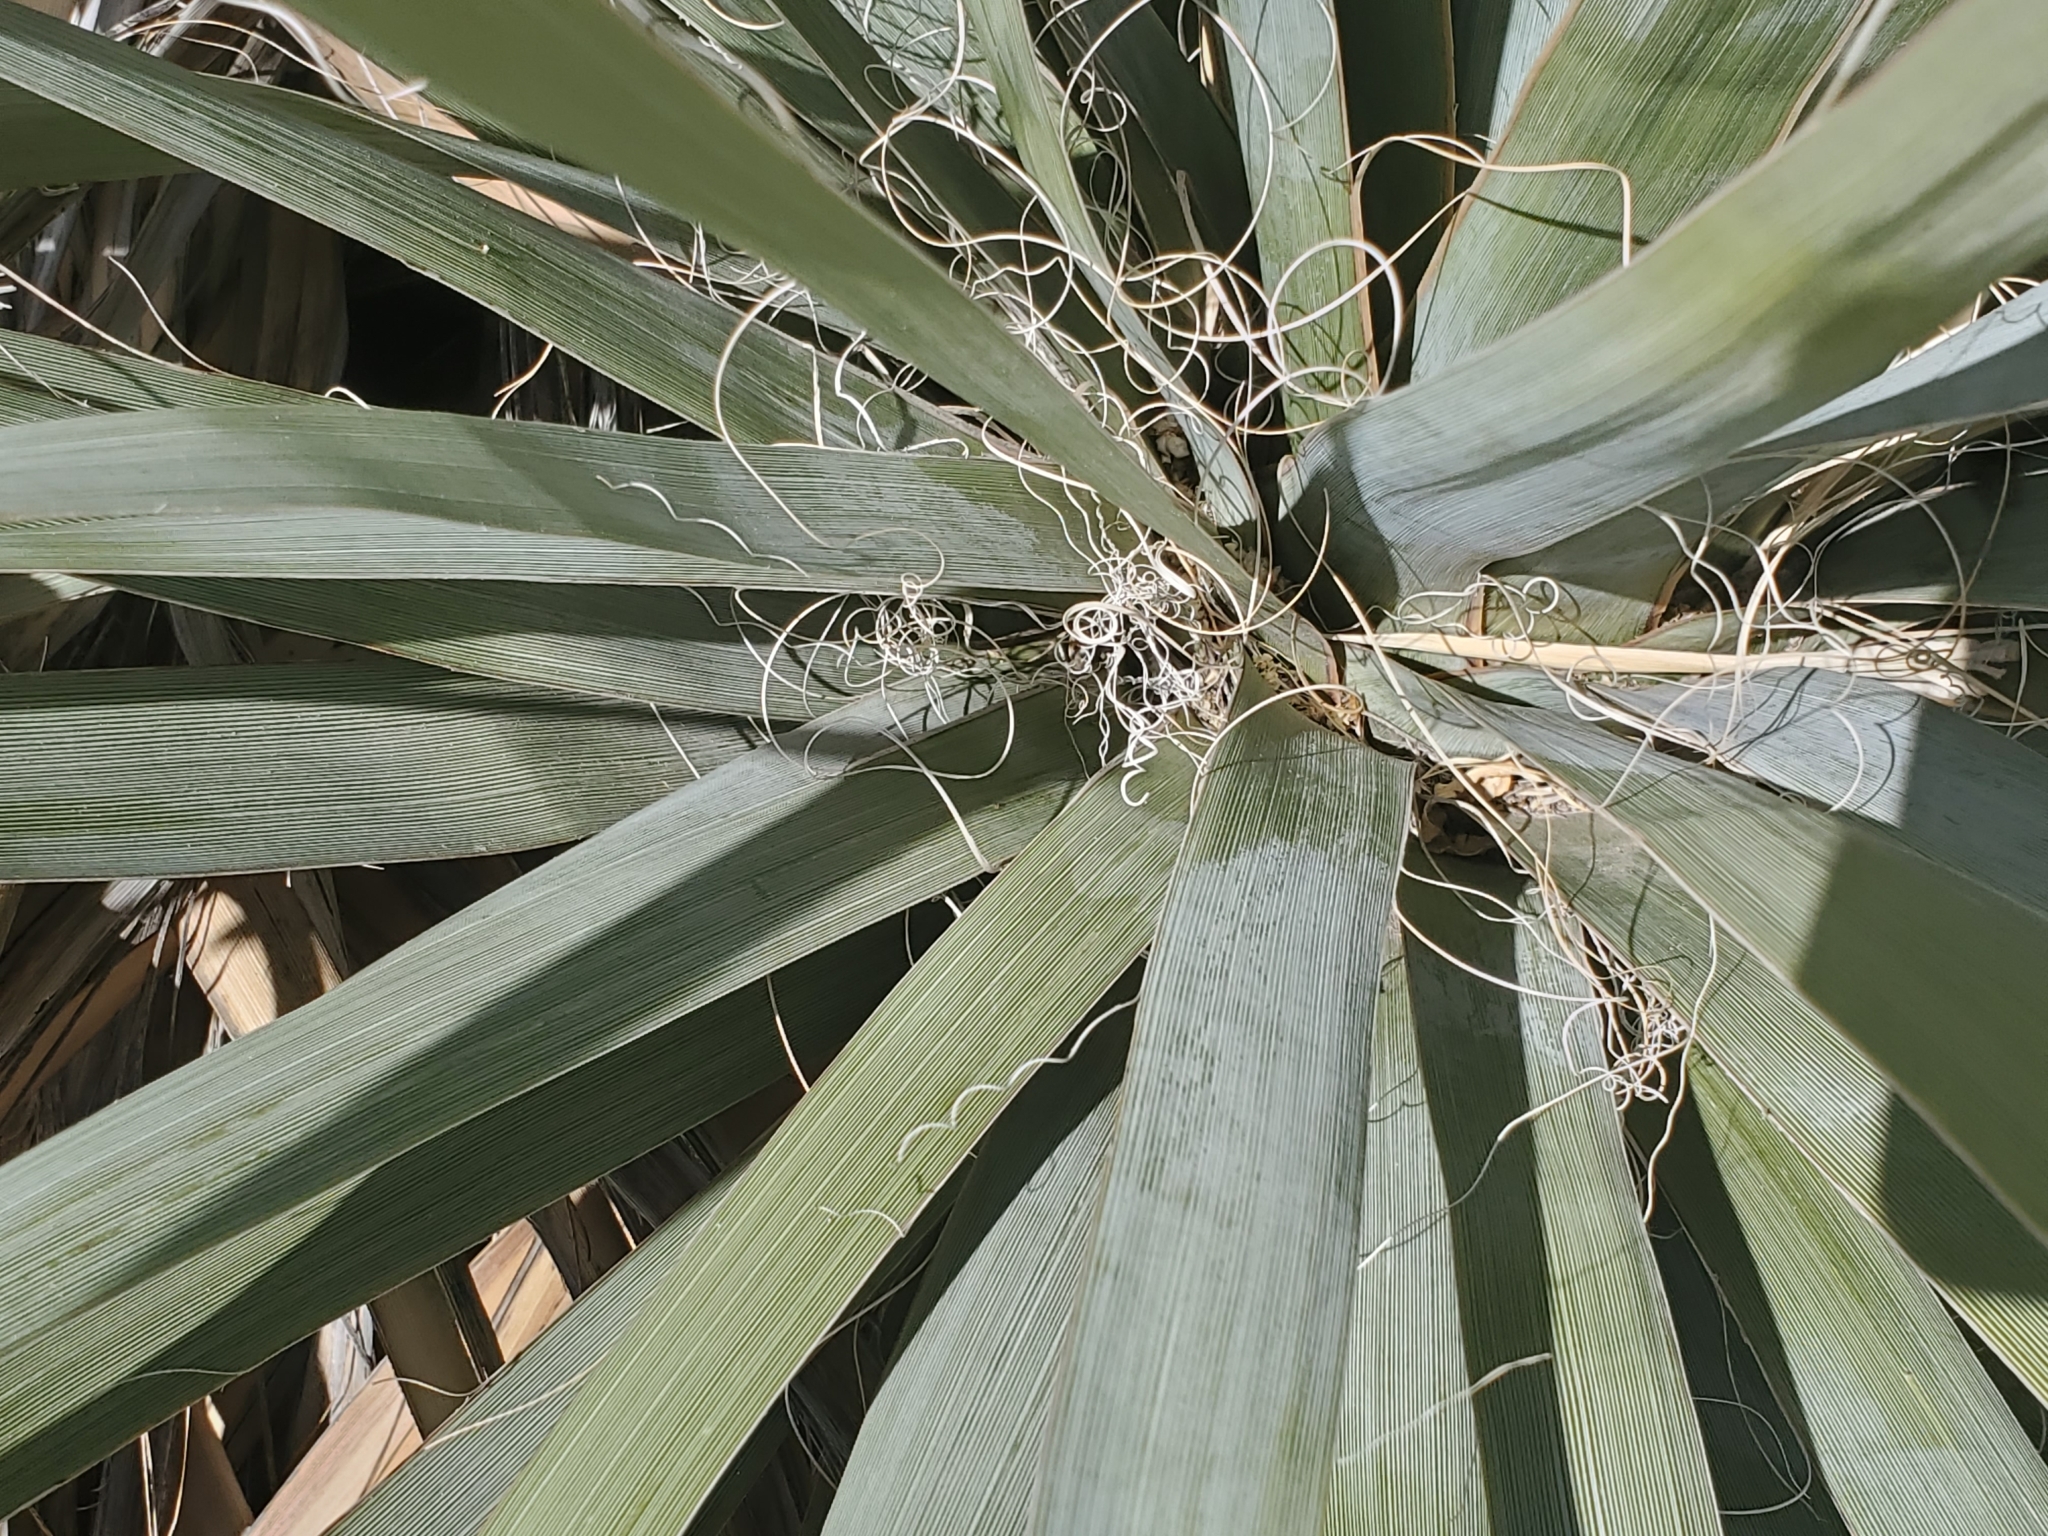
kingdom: Plantae
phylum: Tracheophyta
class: Liliopsida
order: Asparagales
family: Asparagaceae
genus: Nolina
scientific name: Nolina bigelovii
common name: Bigelow bear-grass
